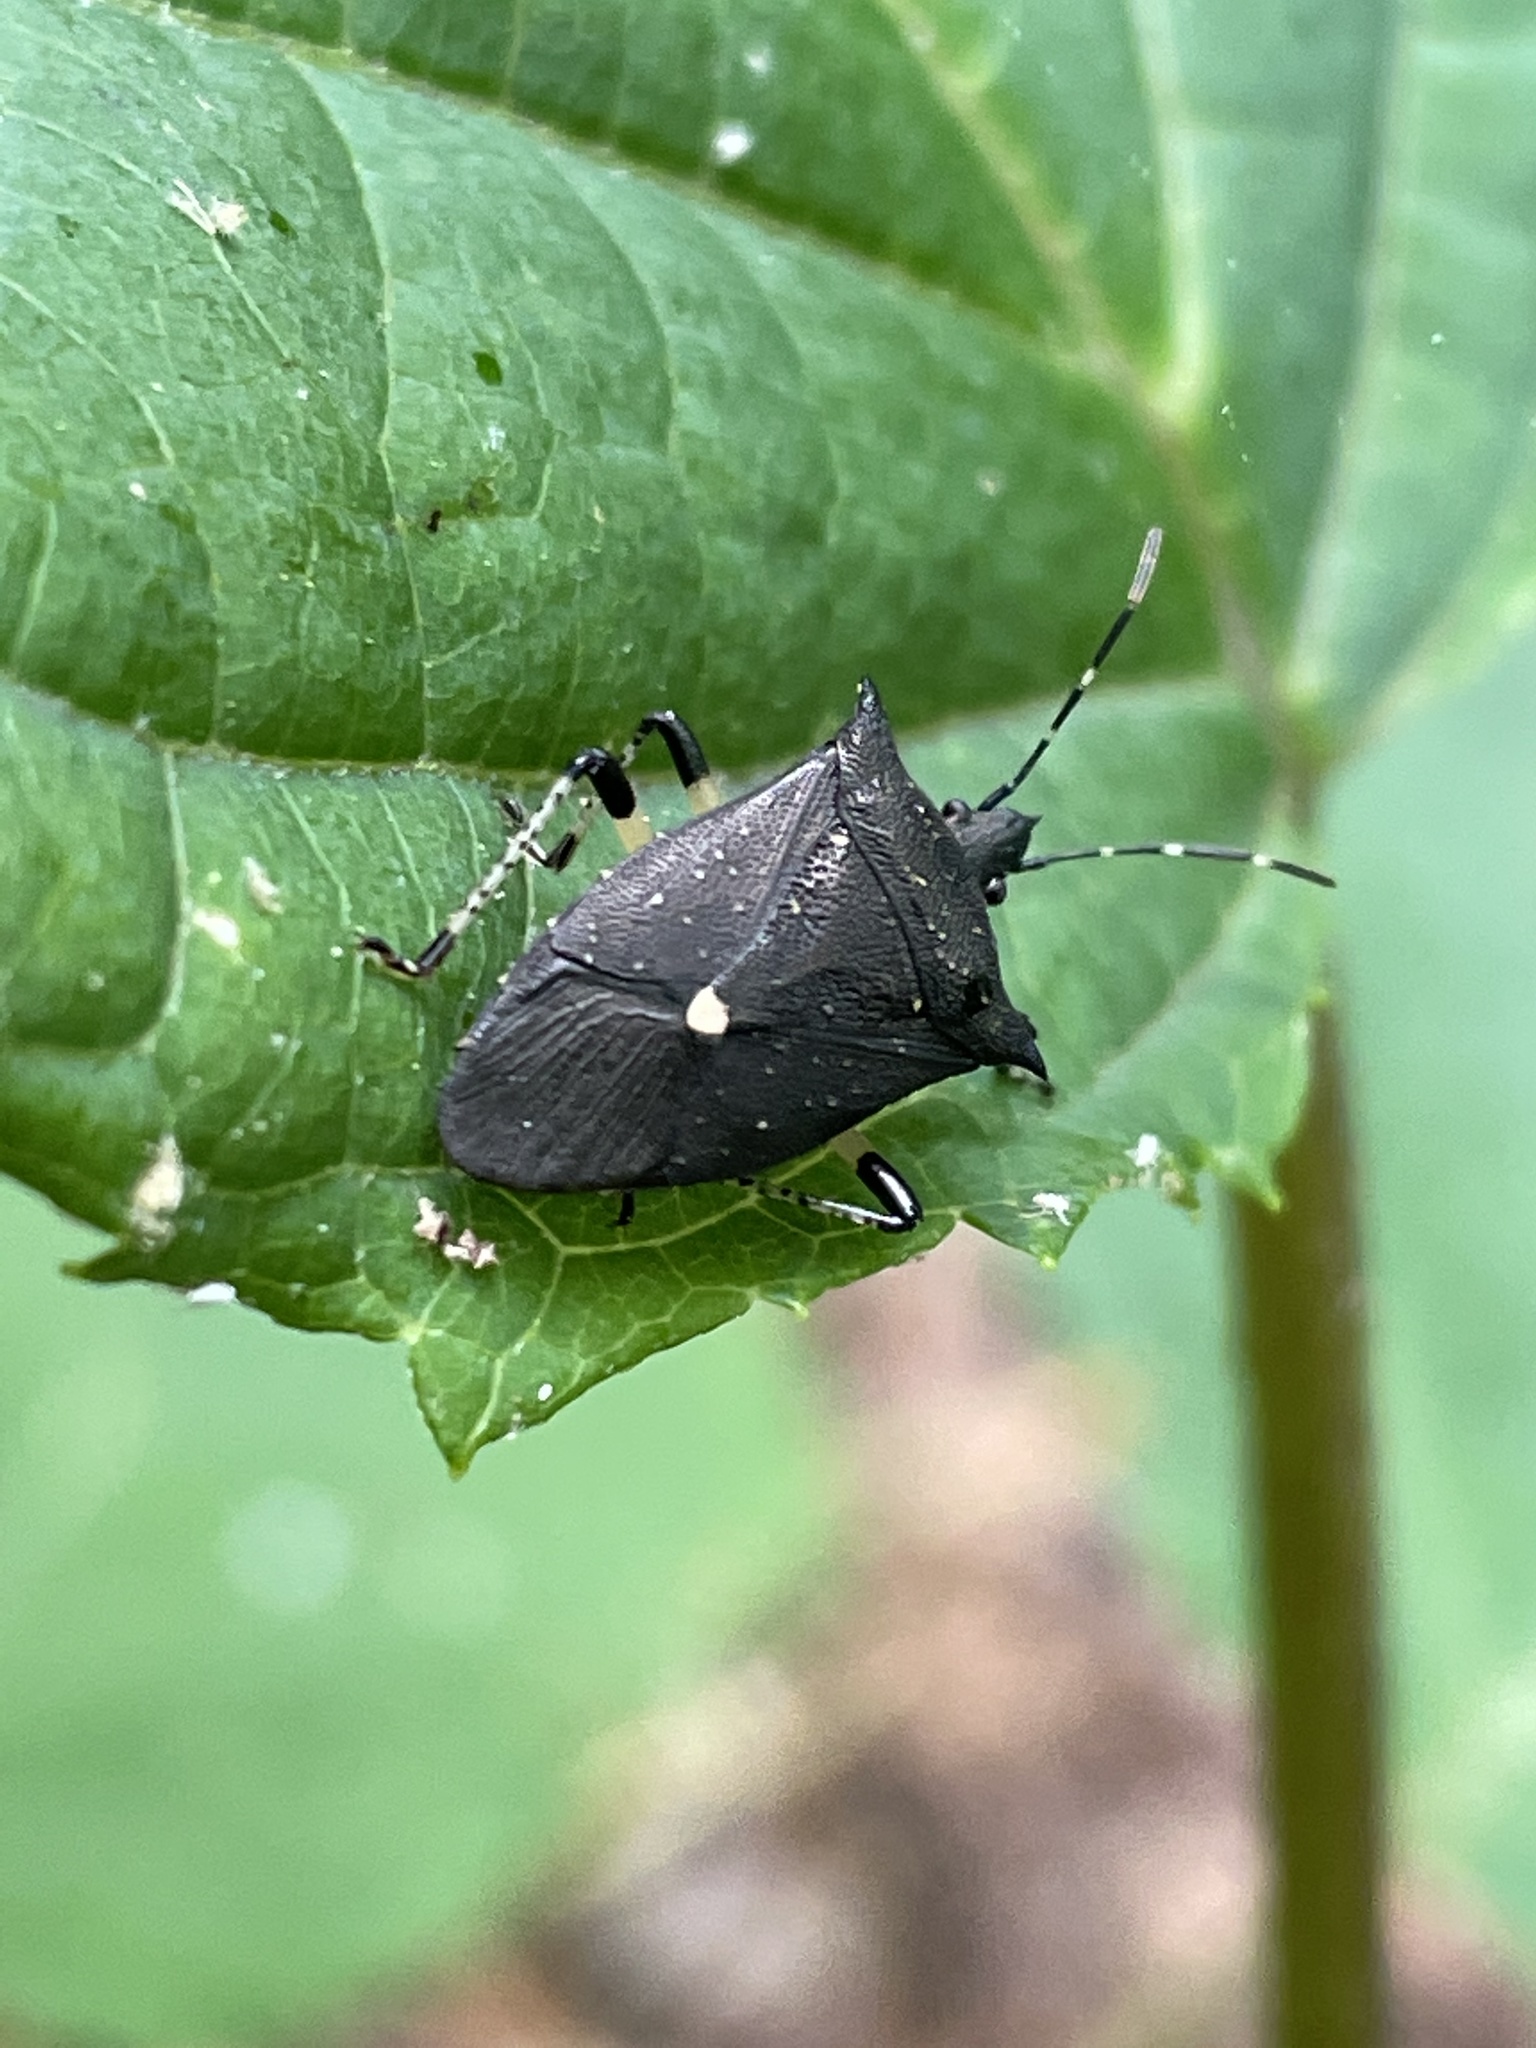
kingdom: Animalia
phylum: Arthropoda
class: Insecta
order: Hemiptera
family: Pentatomidae
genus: Proxys
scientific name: Proxys punctulatus
